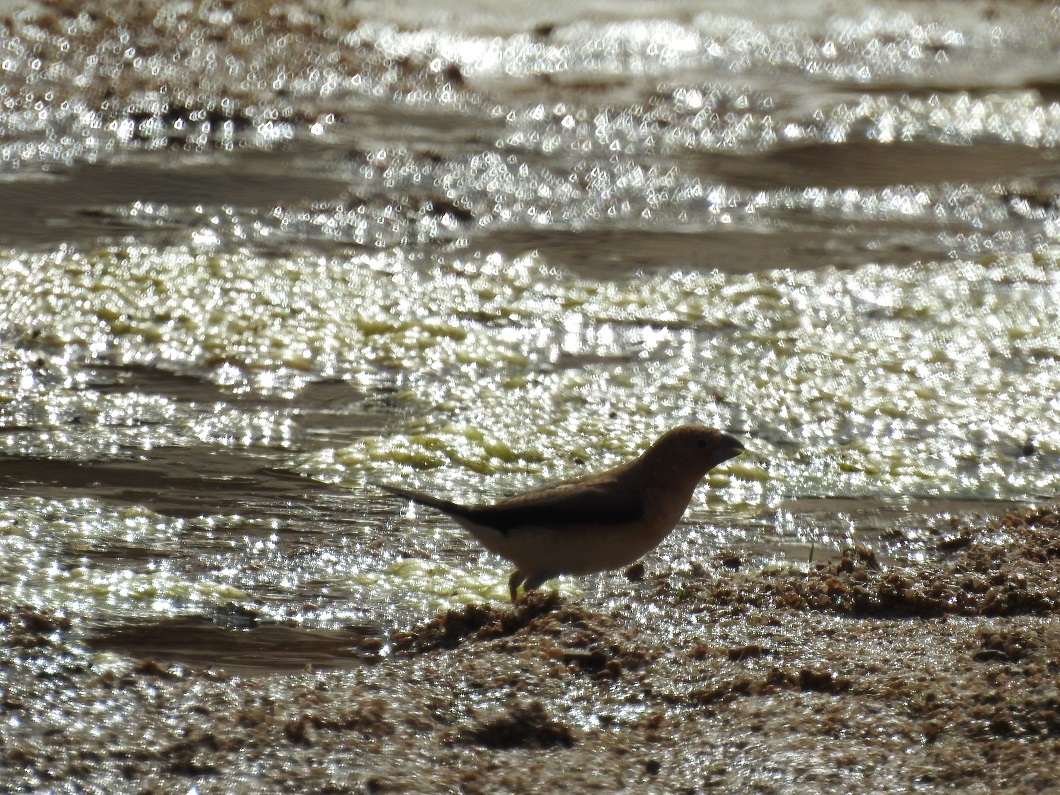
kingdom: Animalia
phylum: Chordata
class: Aves
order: Passeriformes
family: Estrildidae
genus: Euodice
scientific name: Euodice cantans
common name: African silverbill
